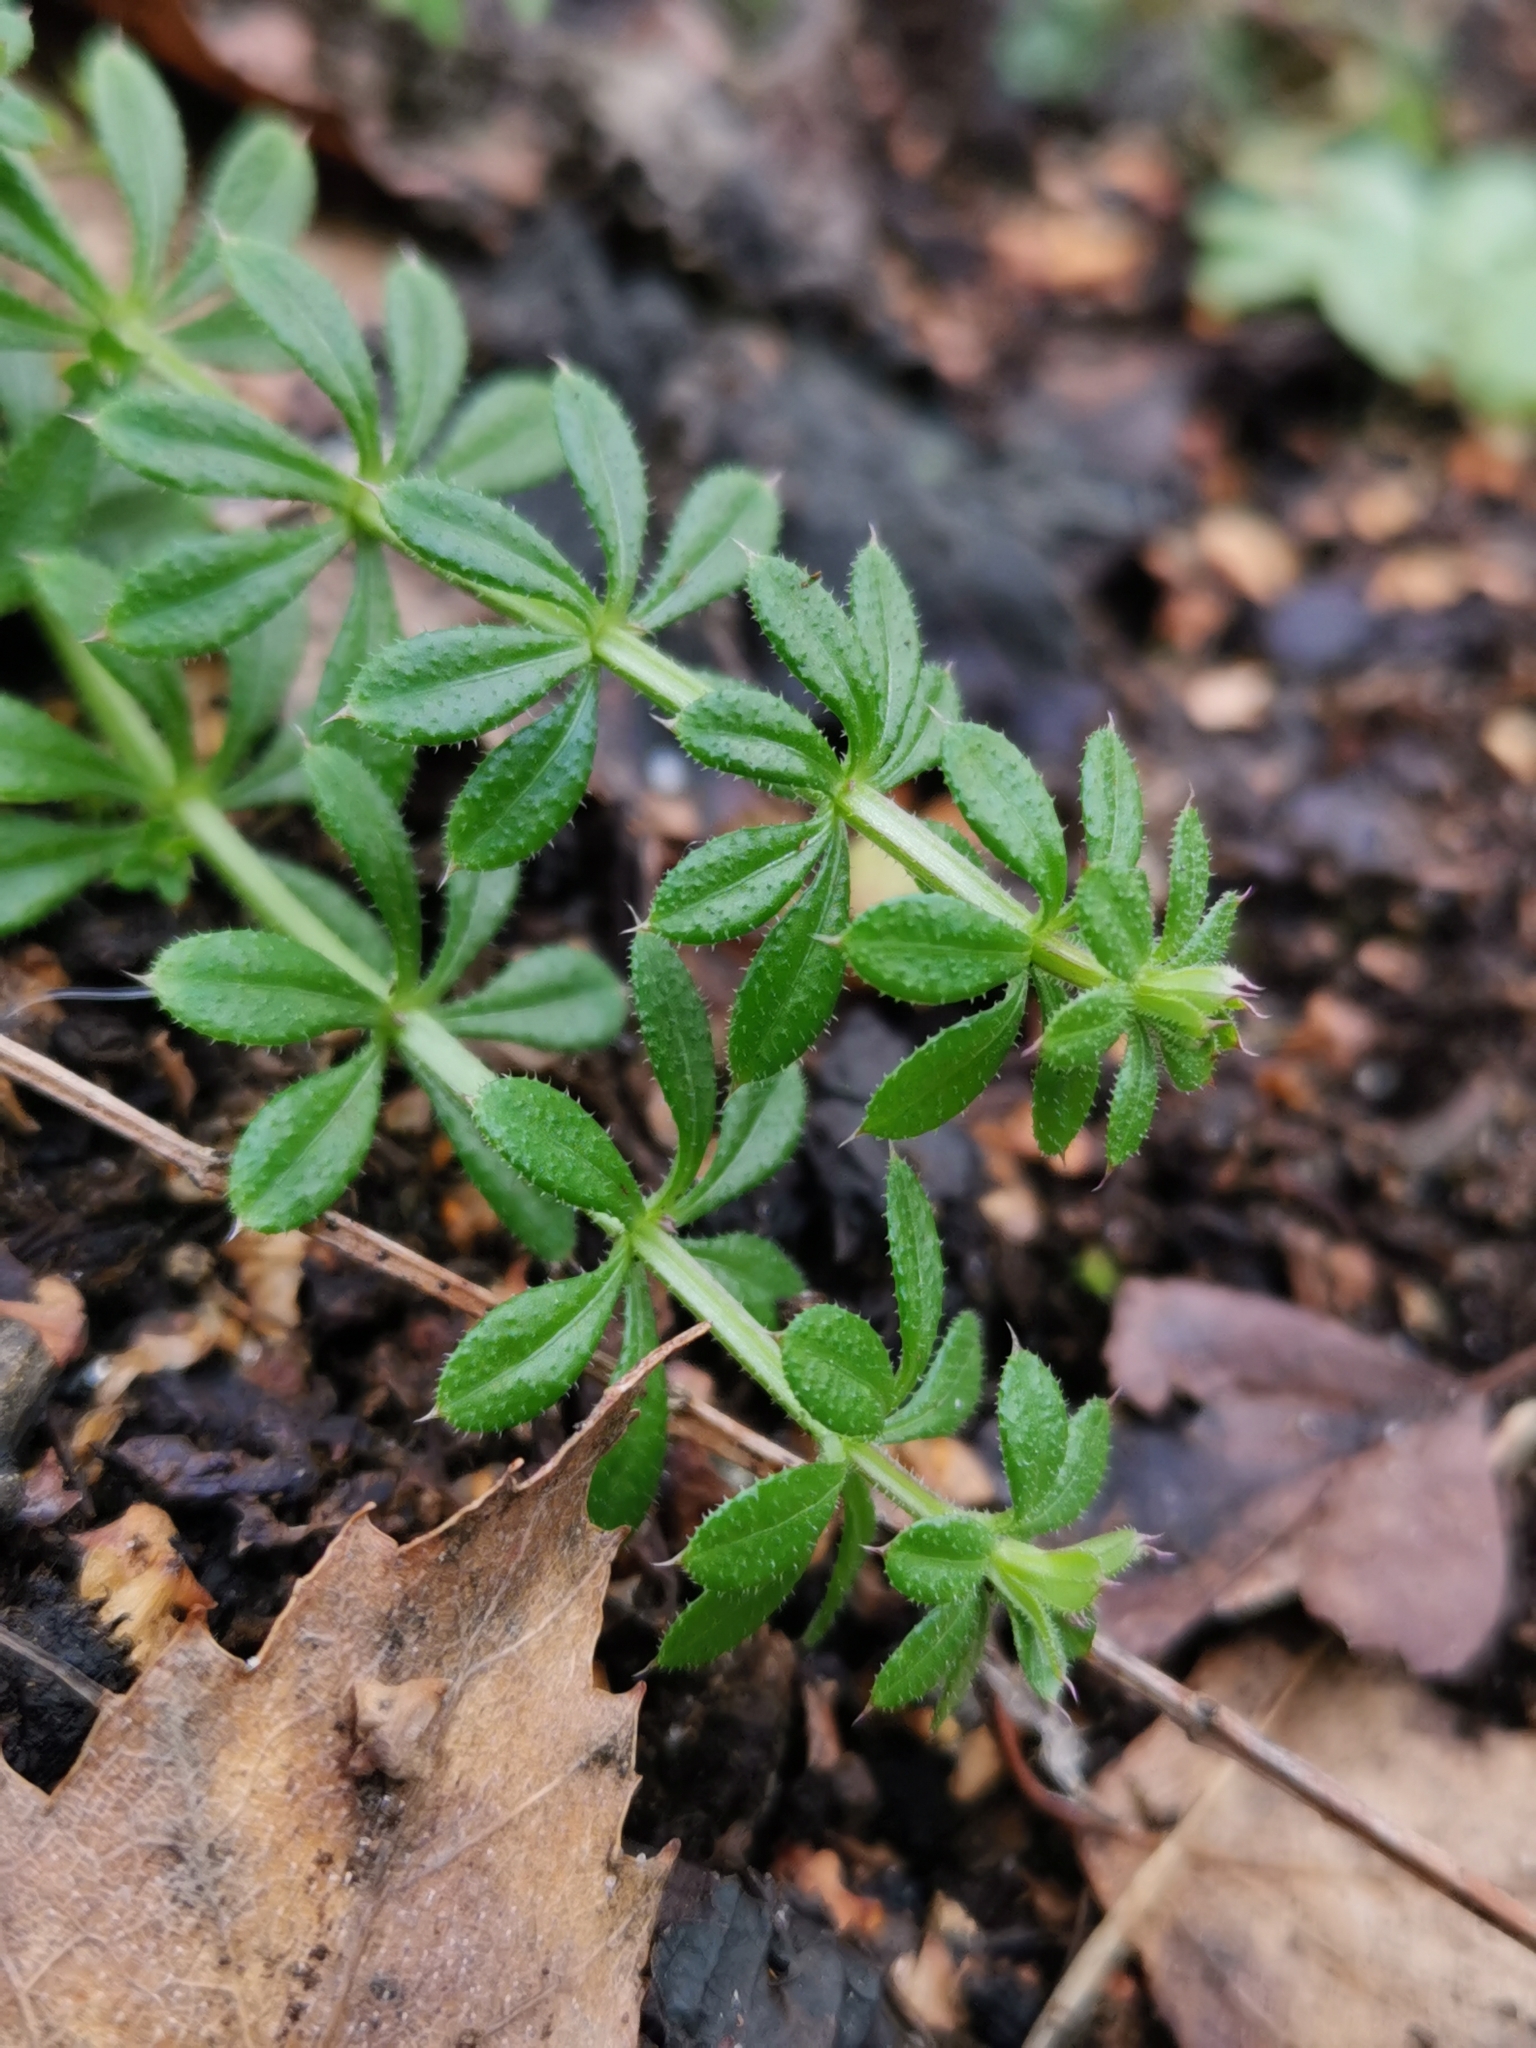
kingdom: Plantae
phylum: Tracheophyta
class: Magnoliopsida
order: Gentianales
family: Rubiaceae
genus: Galium
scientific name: Galium aparine
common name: Cleavers
